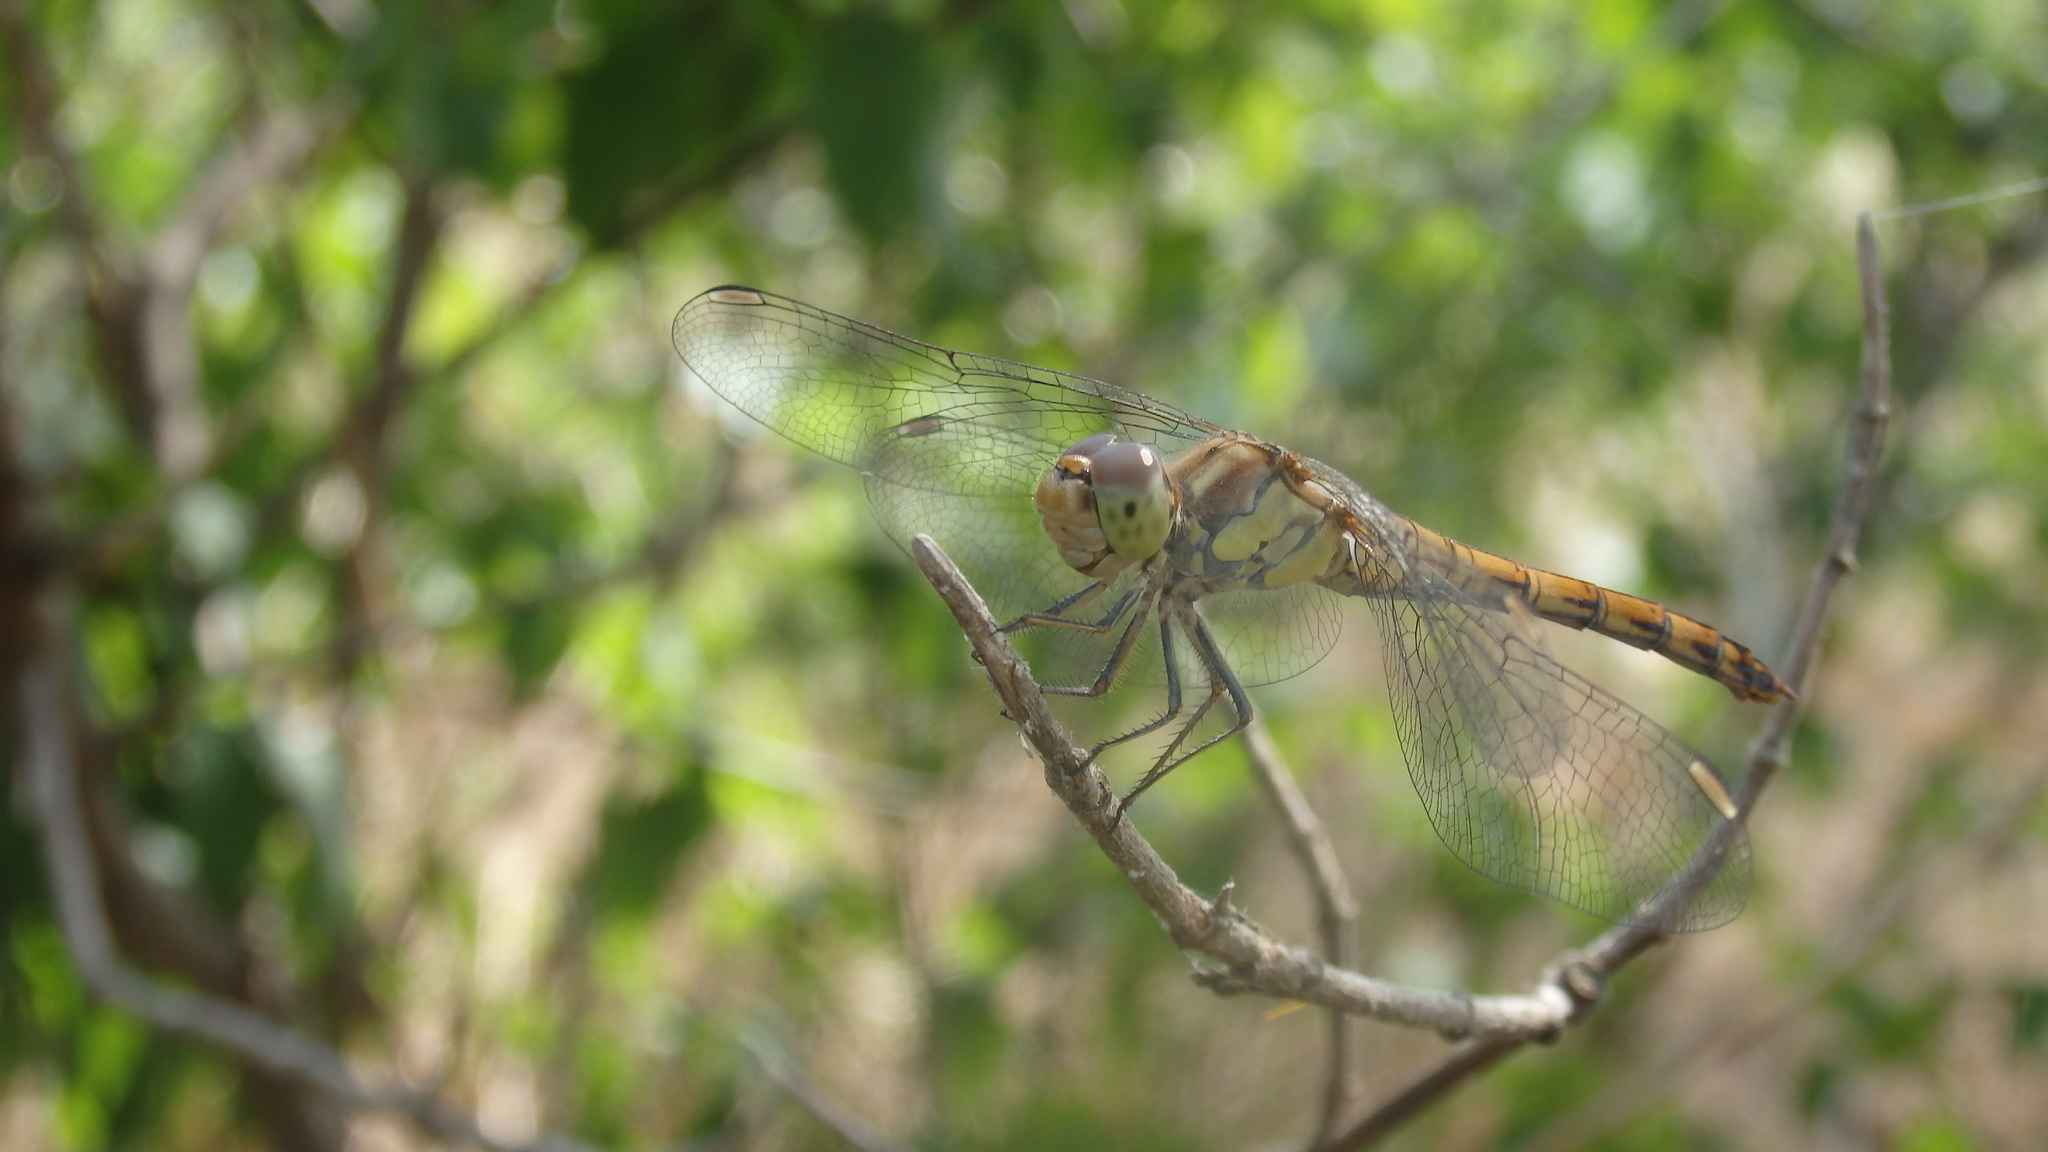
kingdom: Animalia
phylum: Arthropoda
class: Insecta
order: Odonata
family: Libellulidae
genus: Sympetrum
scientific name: Sympetrum striolatum
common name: Common darter
